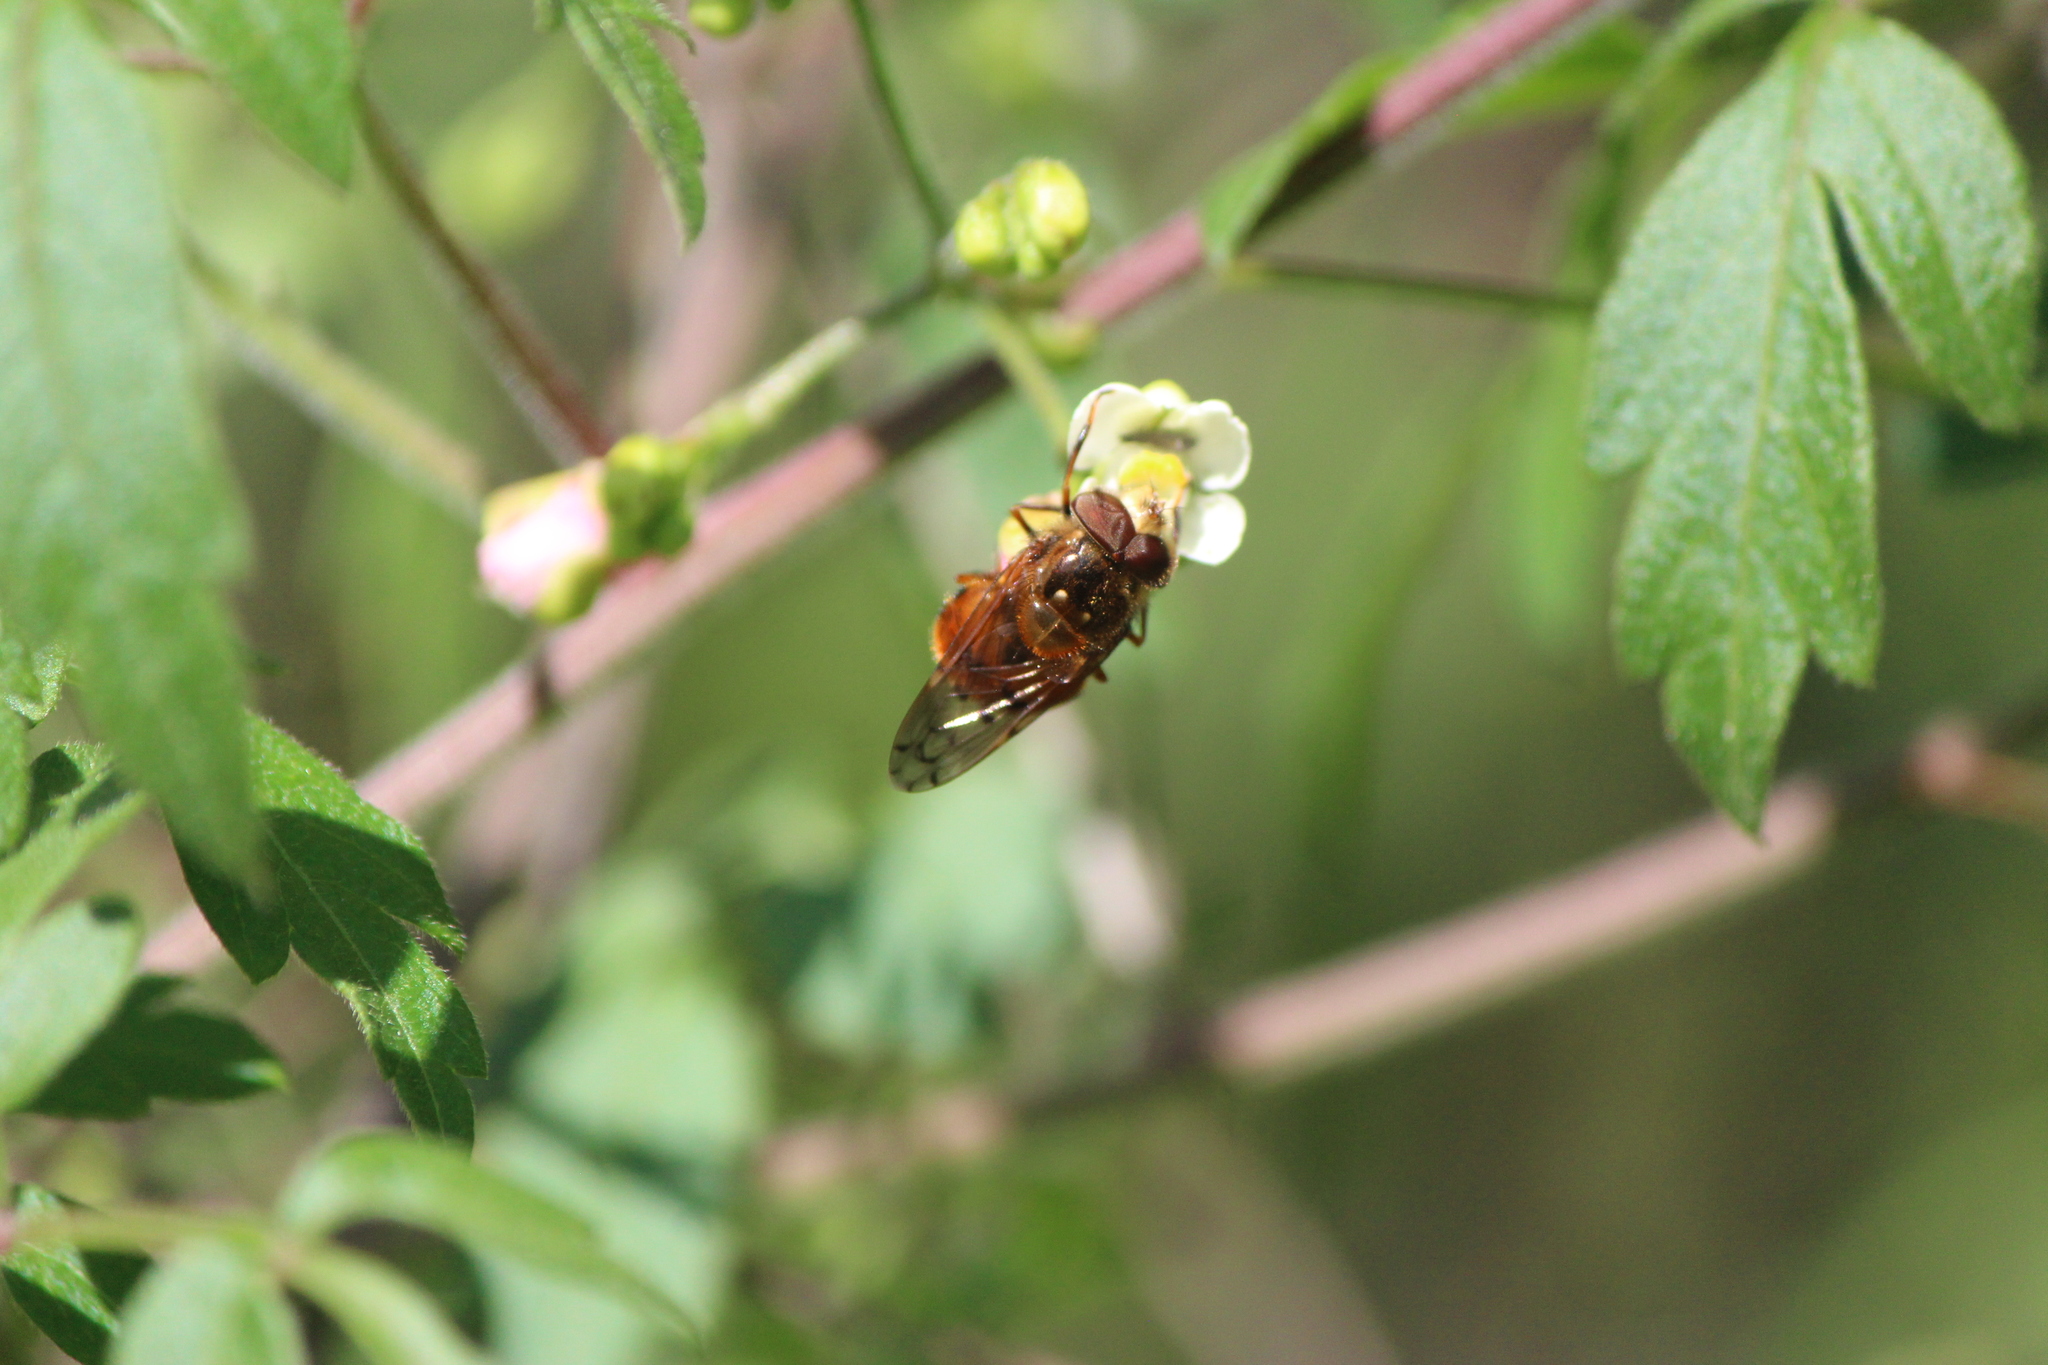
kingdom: Animalia
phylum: Arthropoda
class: Insecta
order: Diptera
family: Syrphidae
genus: Copestylum
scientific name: Copestylum melleum
